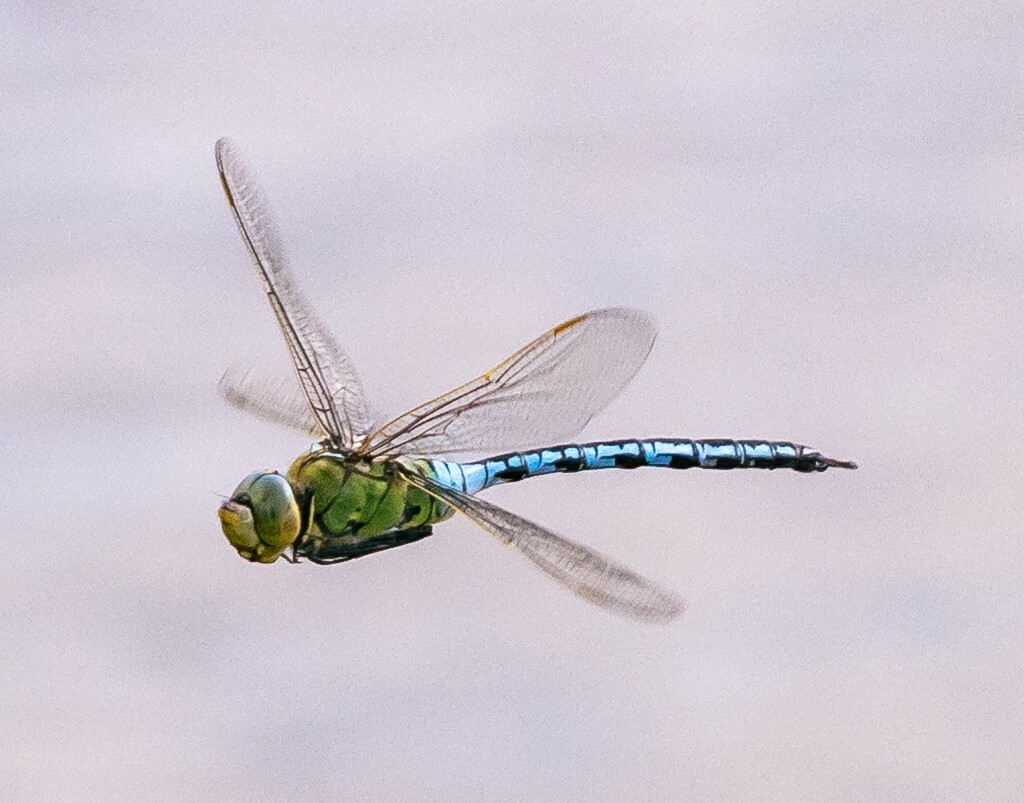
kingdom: Animalia
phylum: Arthropoda
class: Insecta
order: Odonata
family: Aeshnidae
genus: Anax
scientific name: Anax imperator
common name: Emperor dragonfly
